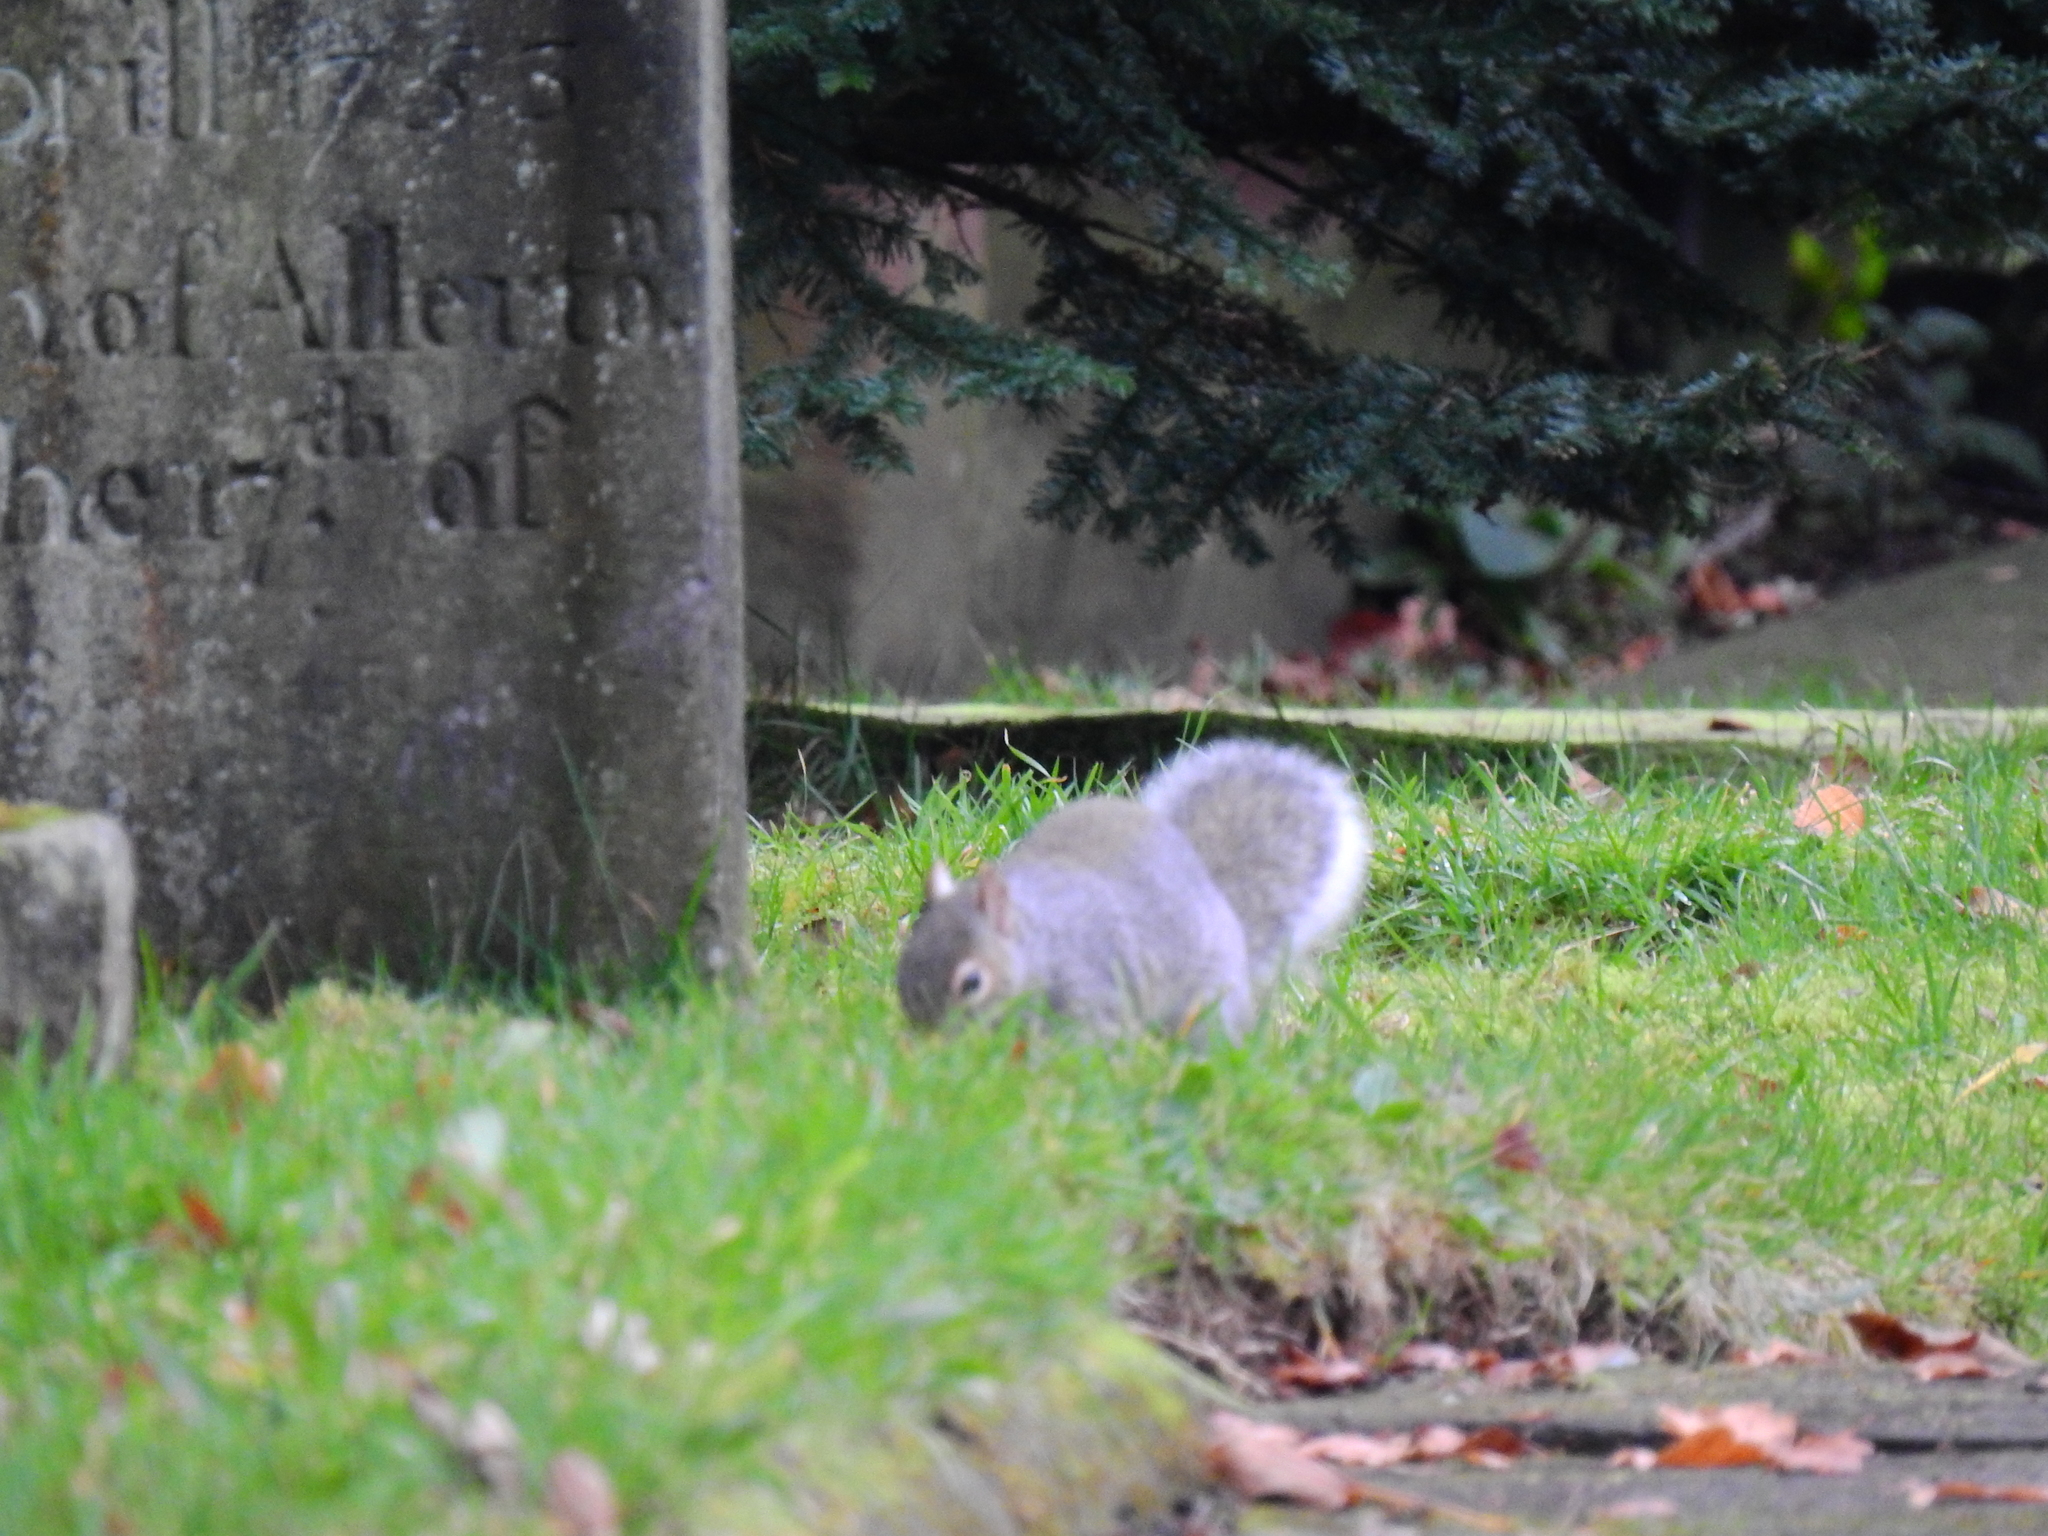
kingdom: Animalia
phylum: Chordata
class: Mammalia
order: Rodentia
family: Sciuridae
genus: Sciurus
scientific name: Sciurus carolinensis
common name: Eastern gray squirrel
